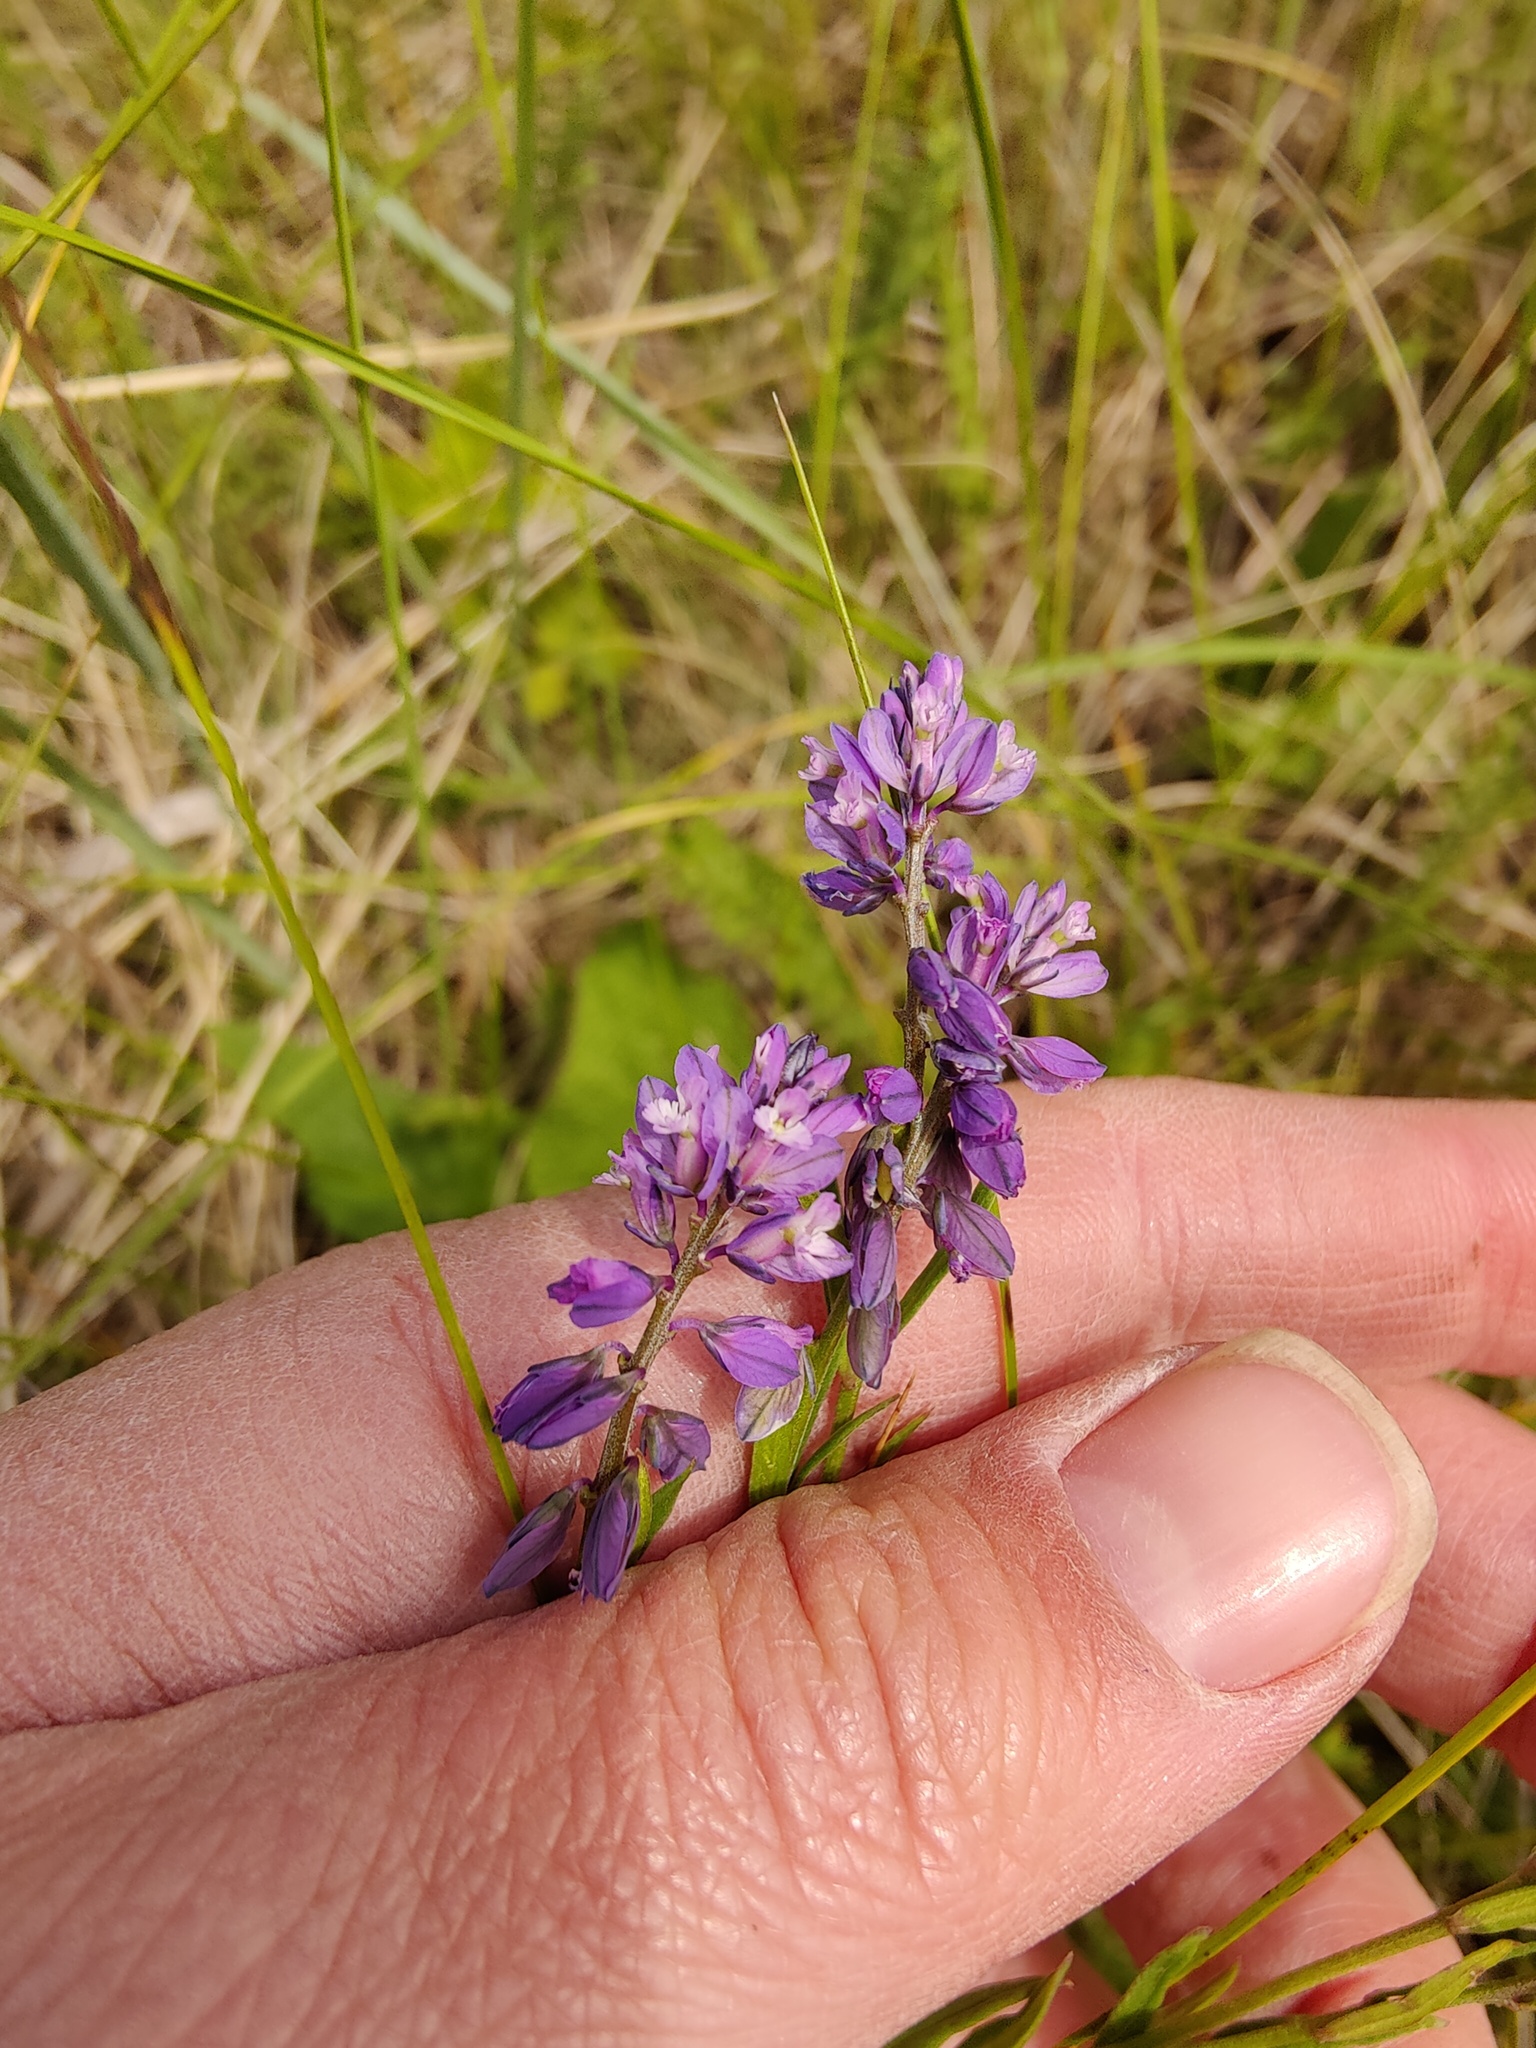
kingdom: Plantae
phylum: Tracheophyta
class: Magnoliopsida
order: Fabales
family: Polygalaceae
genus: Polygala
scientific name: Polygala comosa
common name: Tufted milkwort
